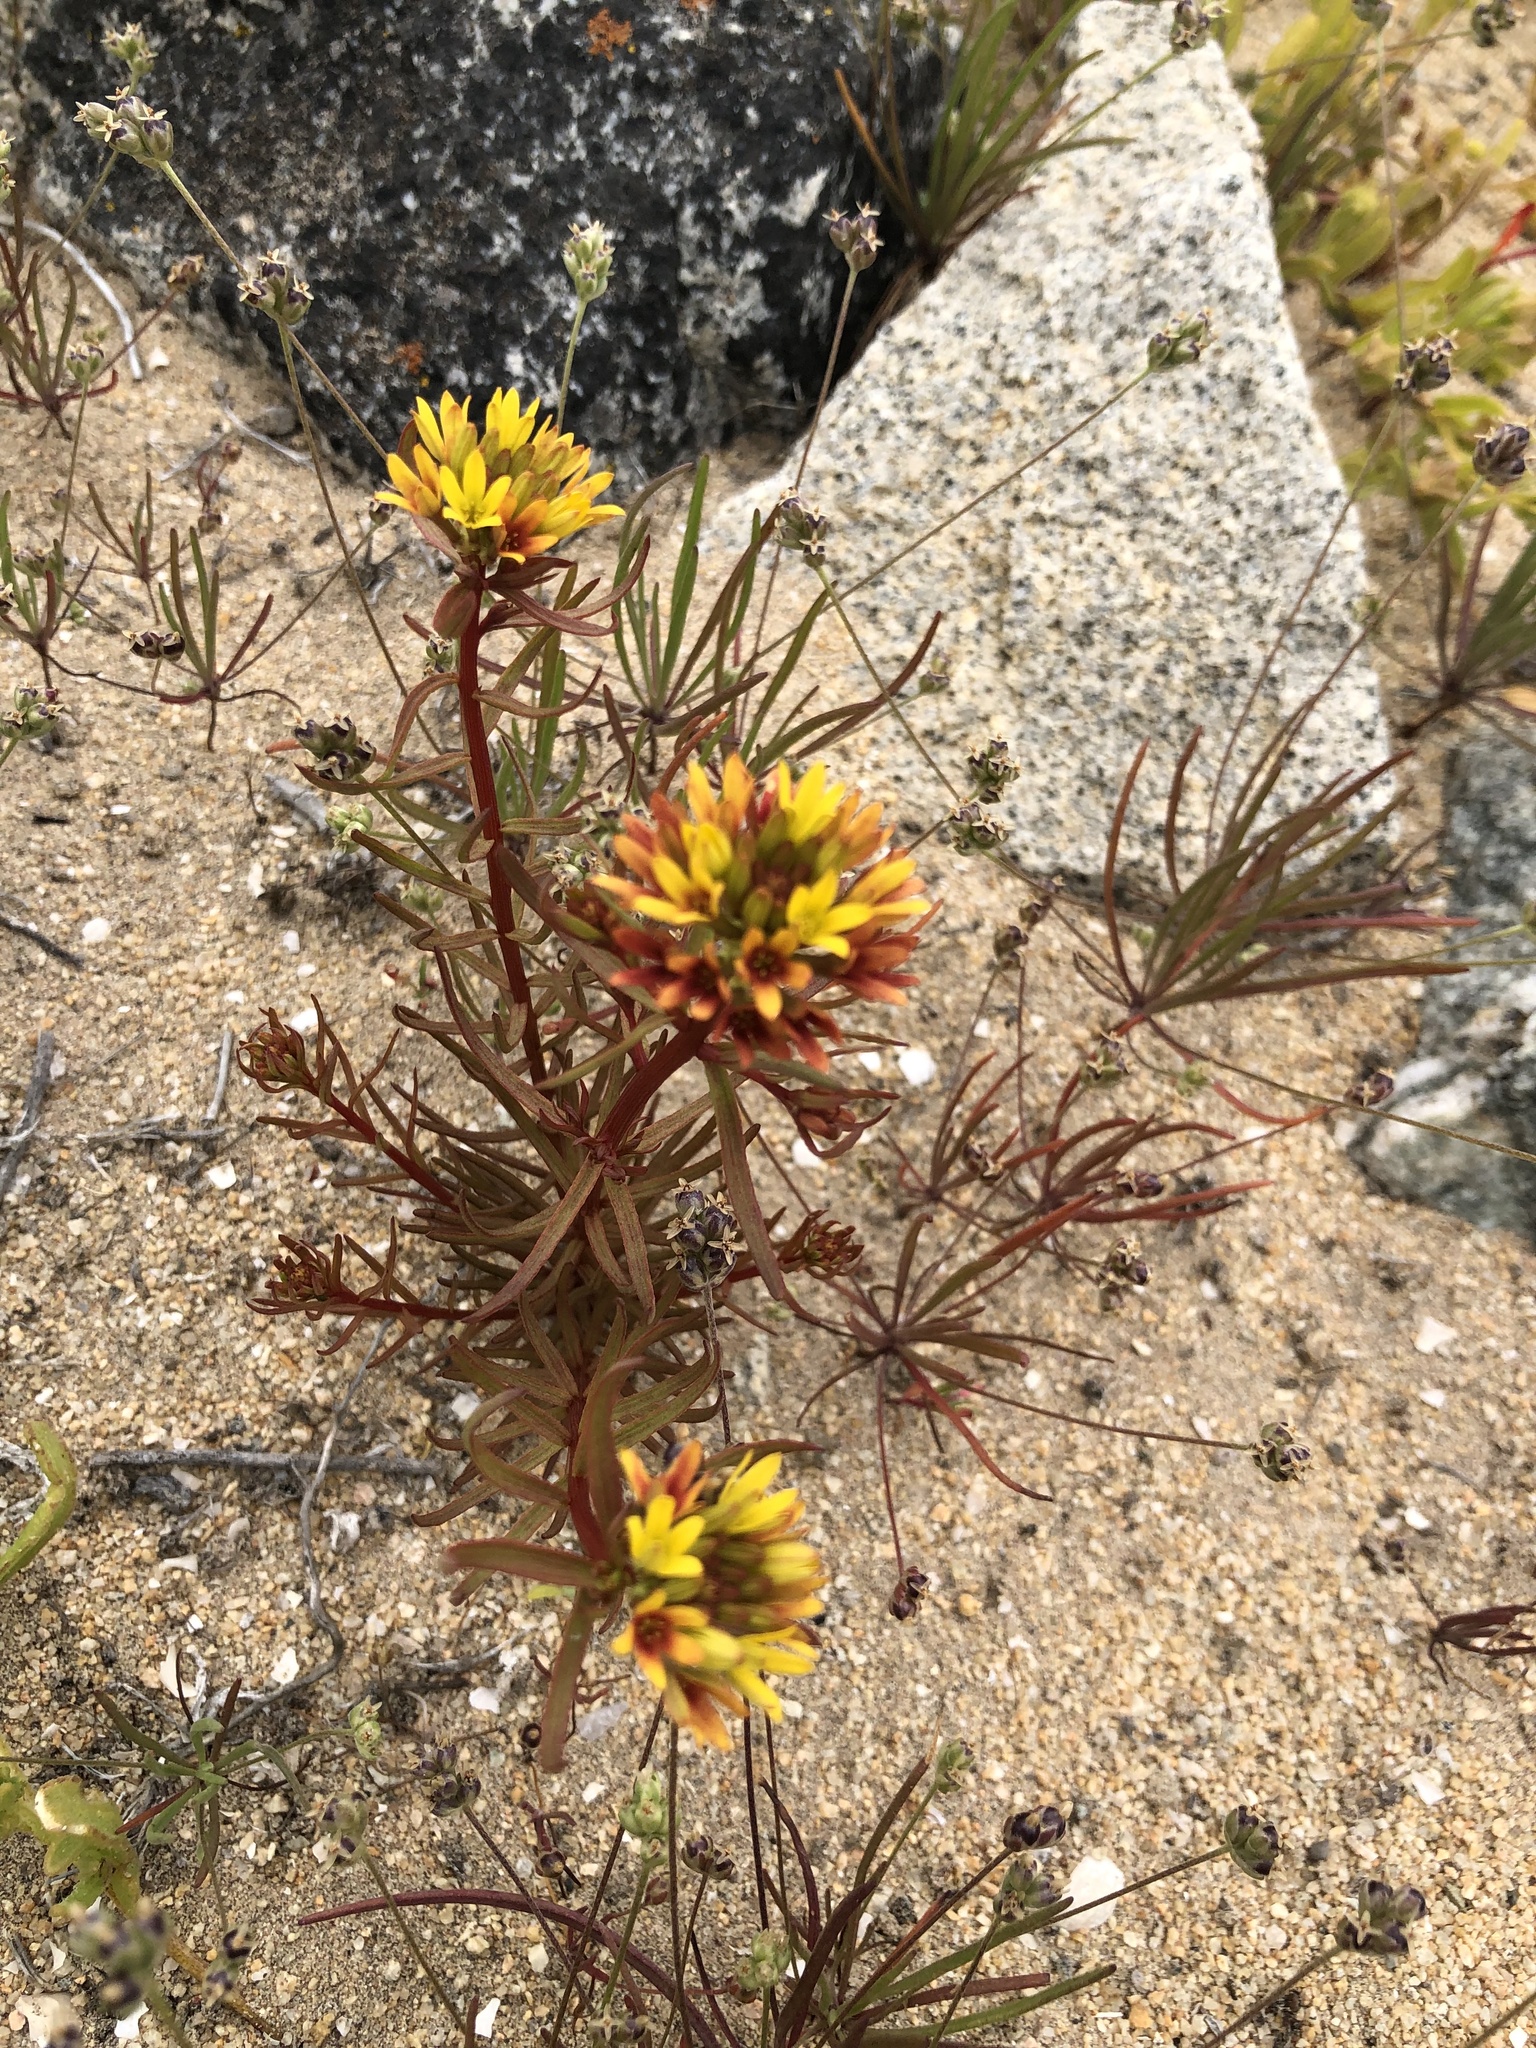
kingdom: Plantae
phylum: Tracheophyta
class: Magnoliopsida
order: Santalales
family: Schoepfiaceae
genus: Quinchamalium
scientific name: Quinchamalium chilense
